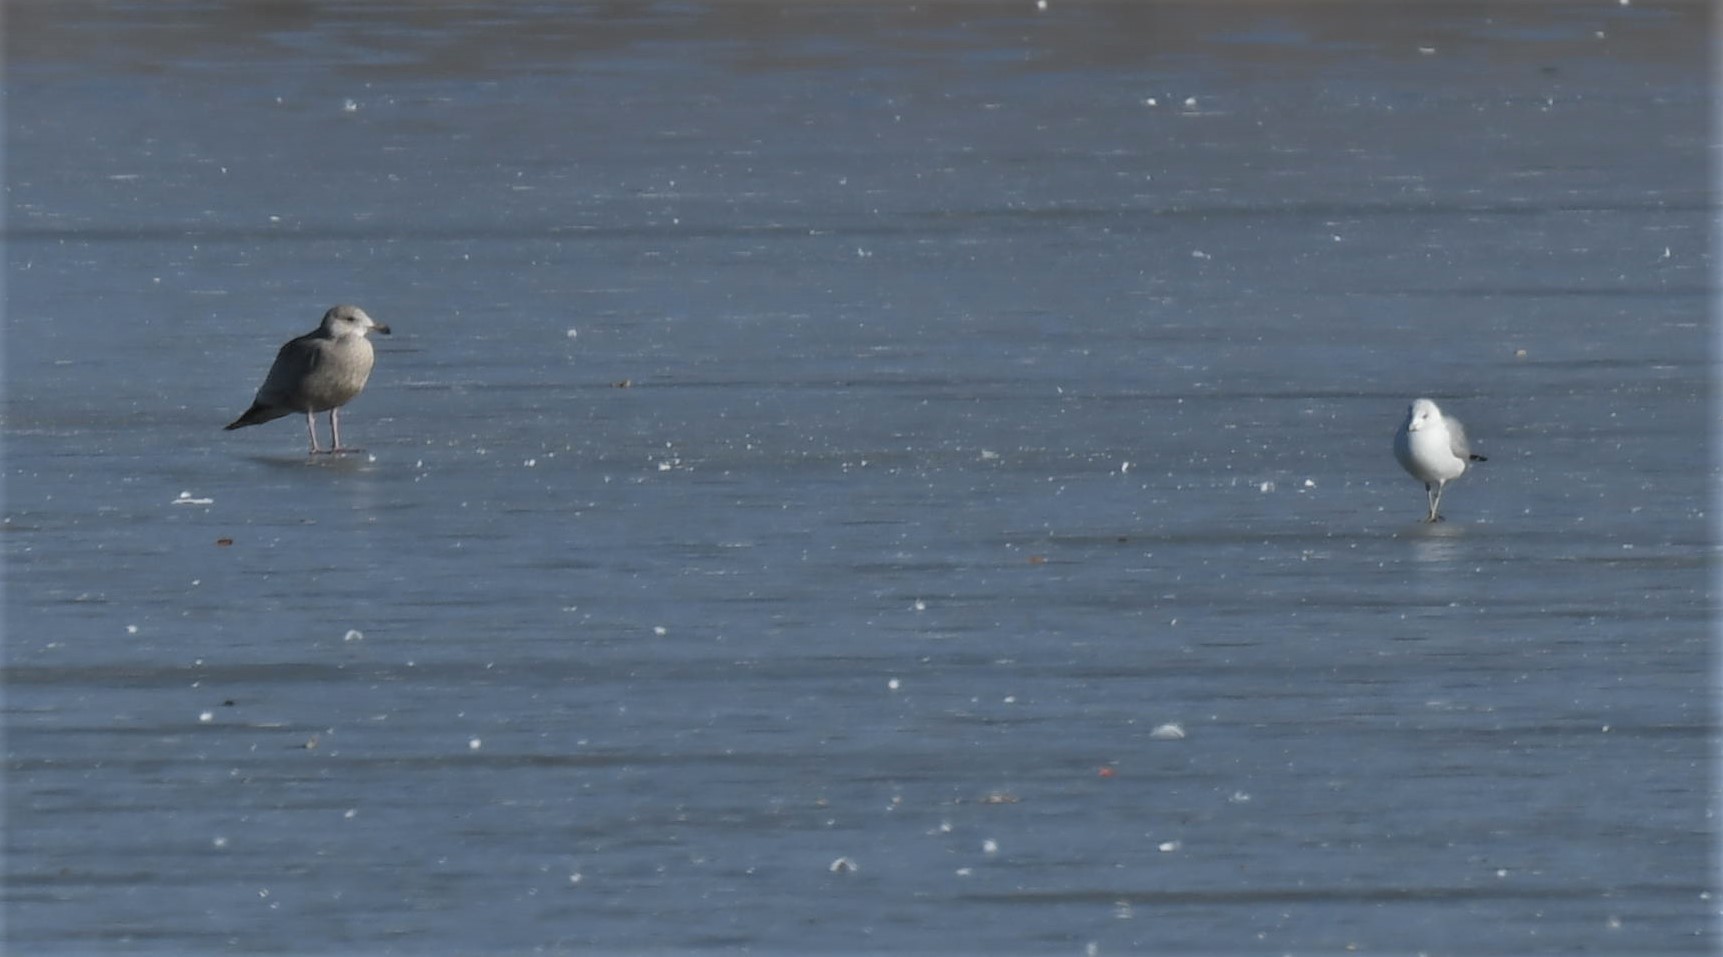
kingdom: Animalia
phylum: Chordata
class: Aves
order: Charadriiformes
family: Laridae
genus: Larus
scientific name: Larus argentatus
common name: Herring gull
